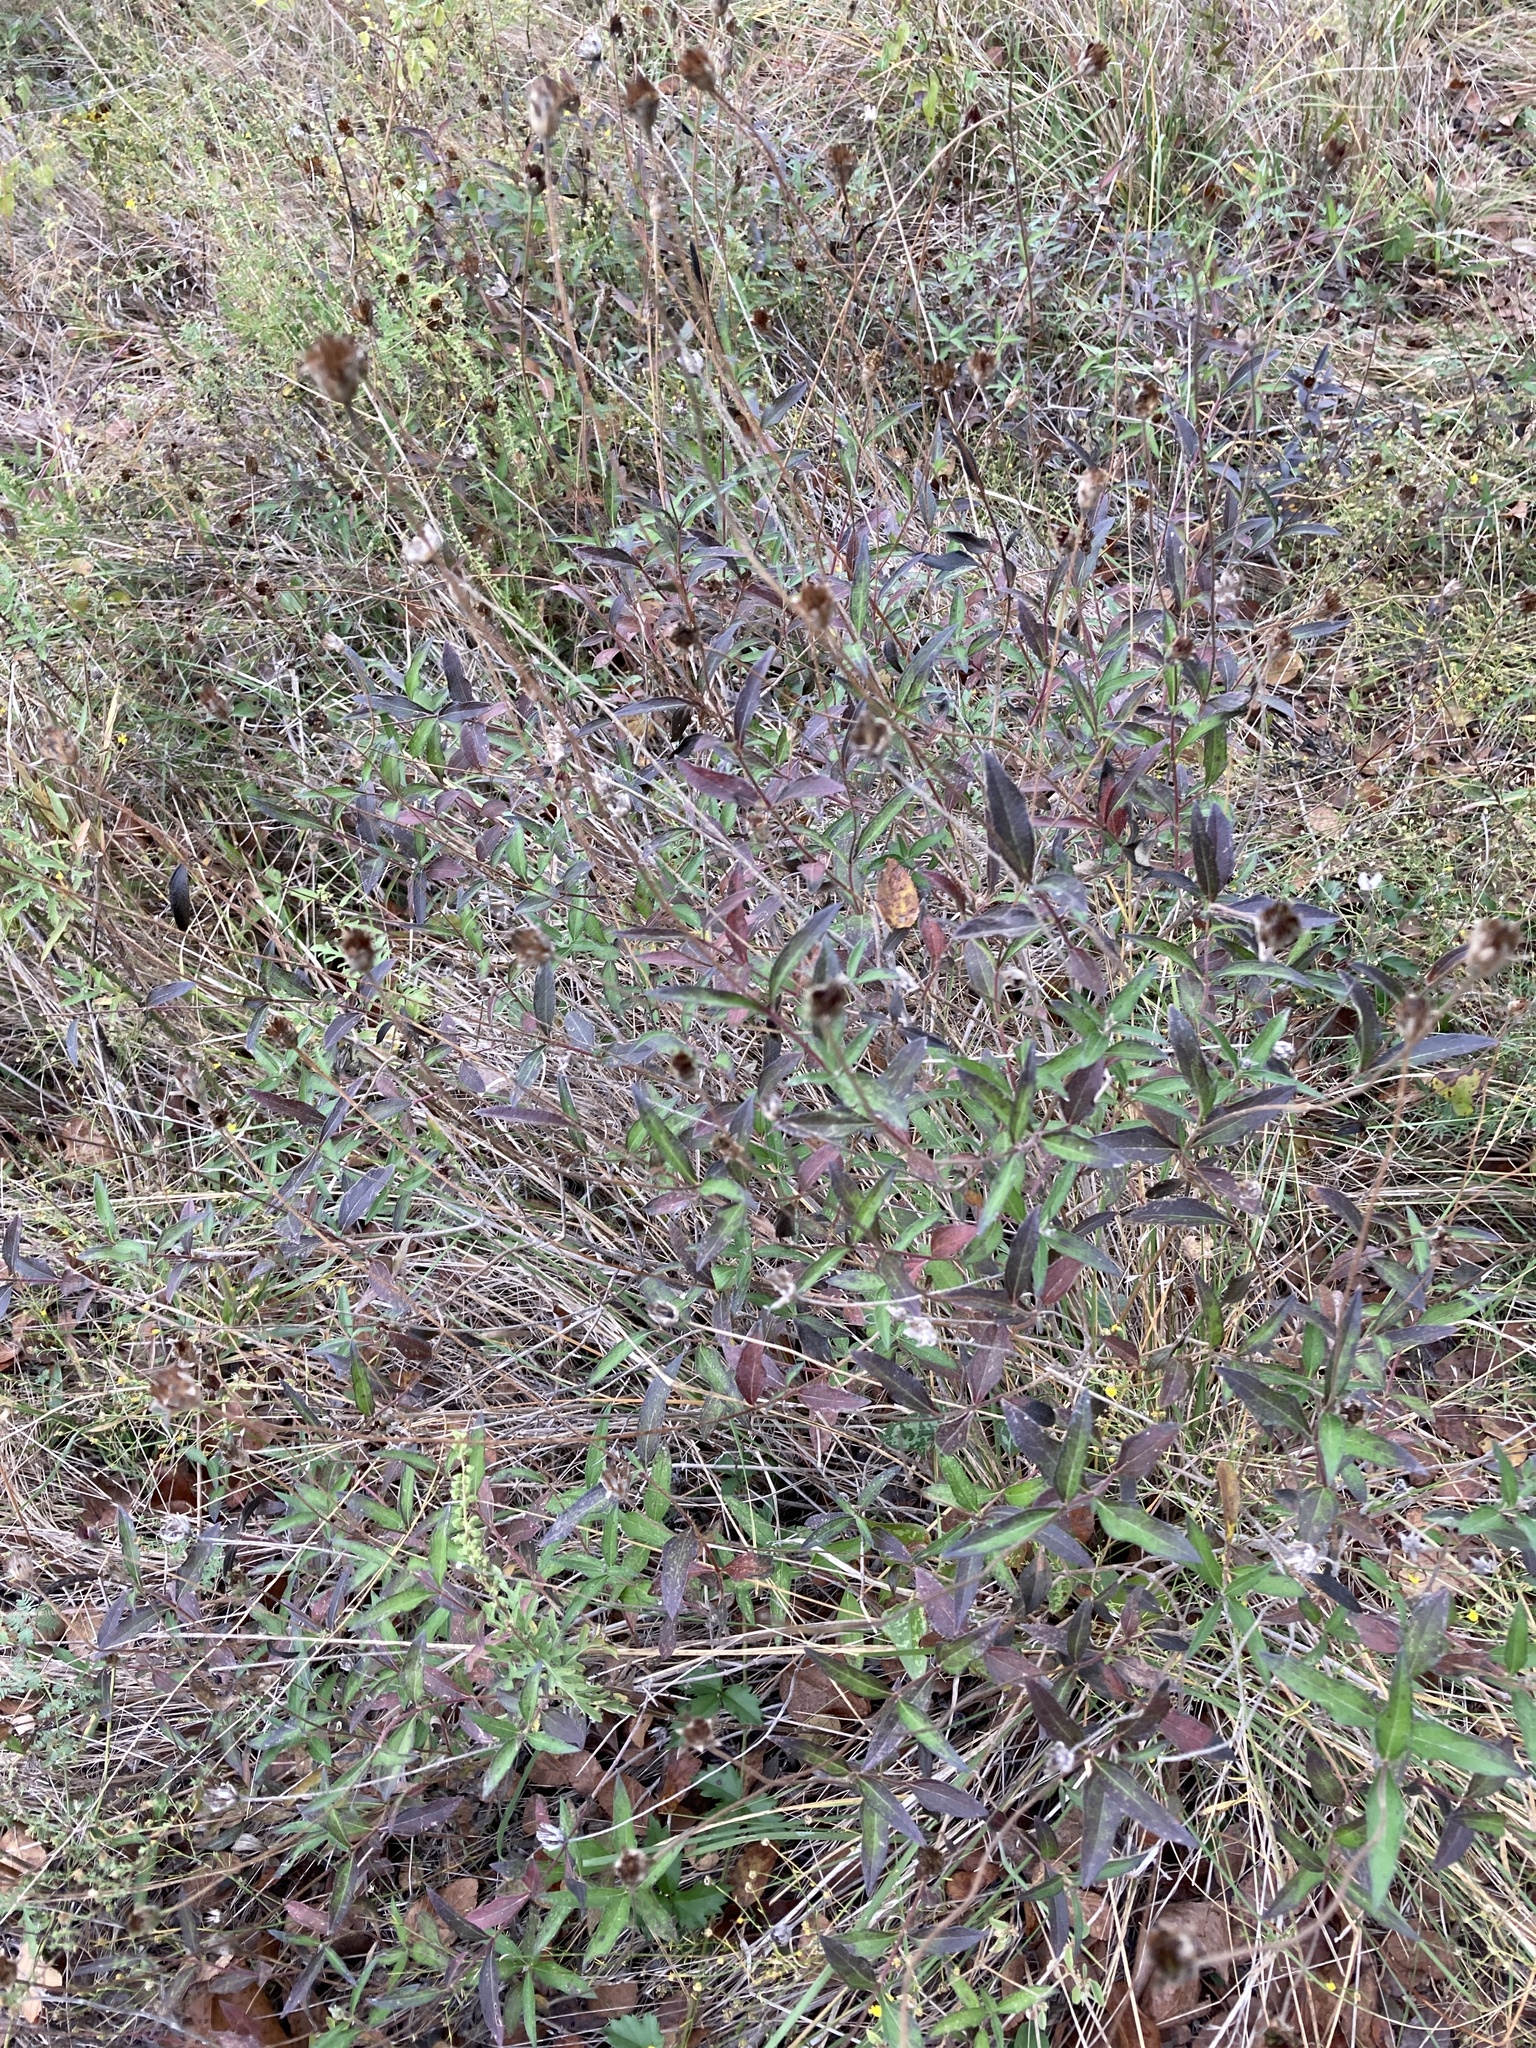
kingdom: Plantae
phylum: Tracheophyta
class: Magnoliopsida
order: Asterales
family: Asteraceae
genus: Wedelia
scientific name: Wedelia acapulcensis
